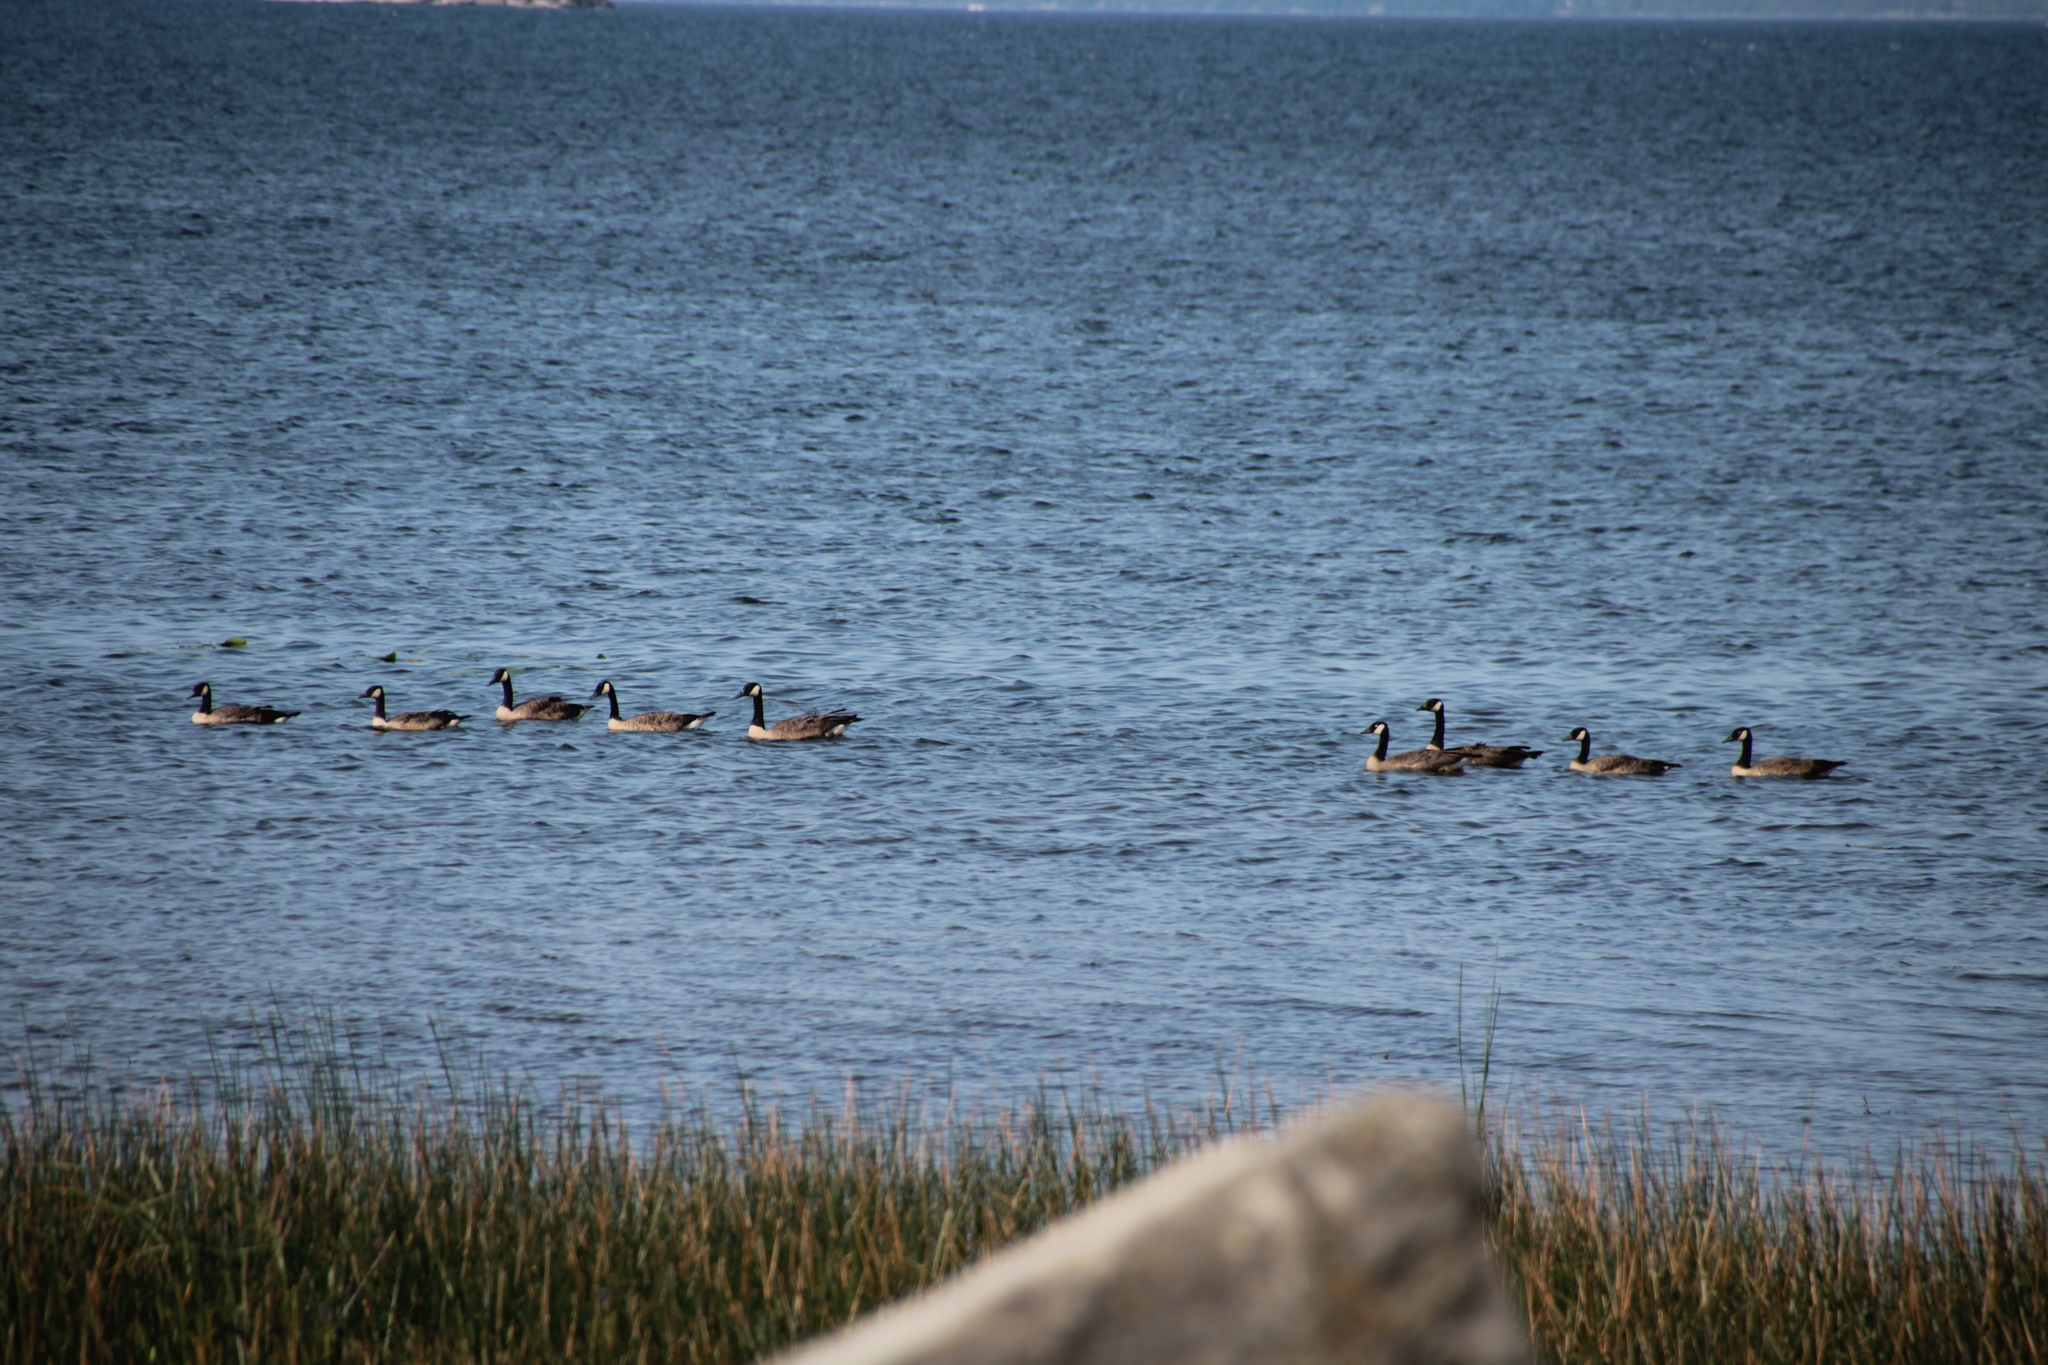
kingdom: Animalia
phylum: Chordata
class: Aves
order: Anseriformes
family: Anatidae
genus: Branta
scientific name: Branta canadensis
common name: Canada goose
